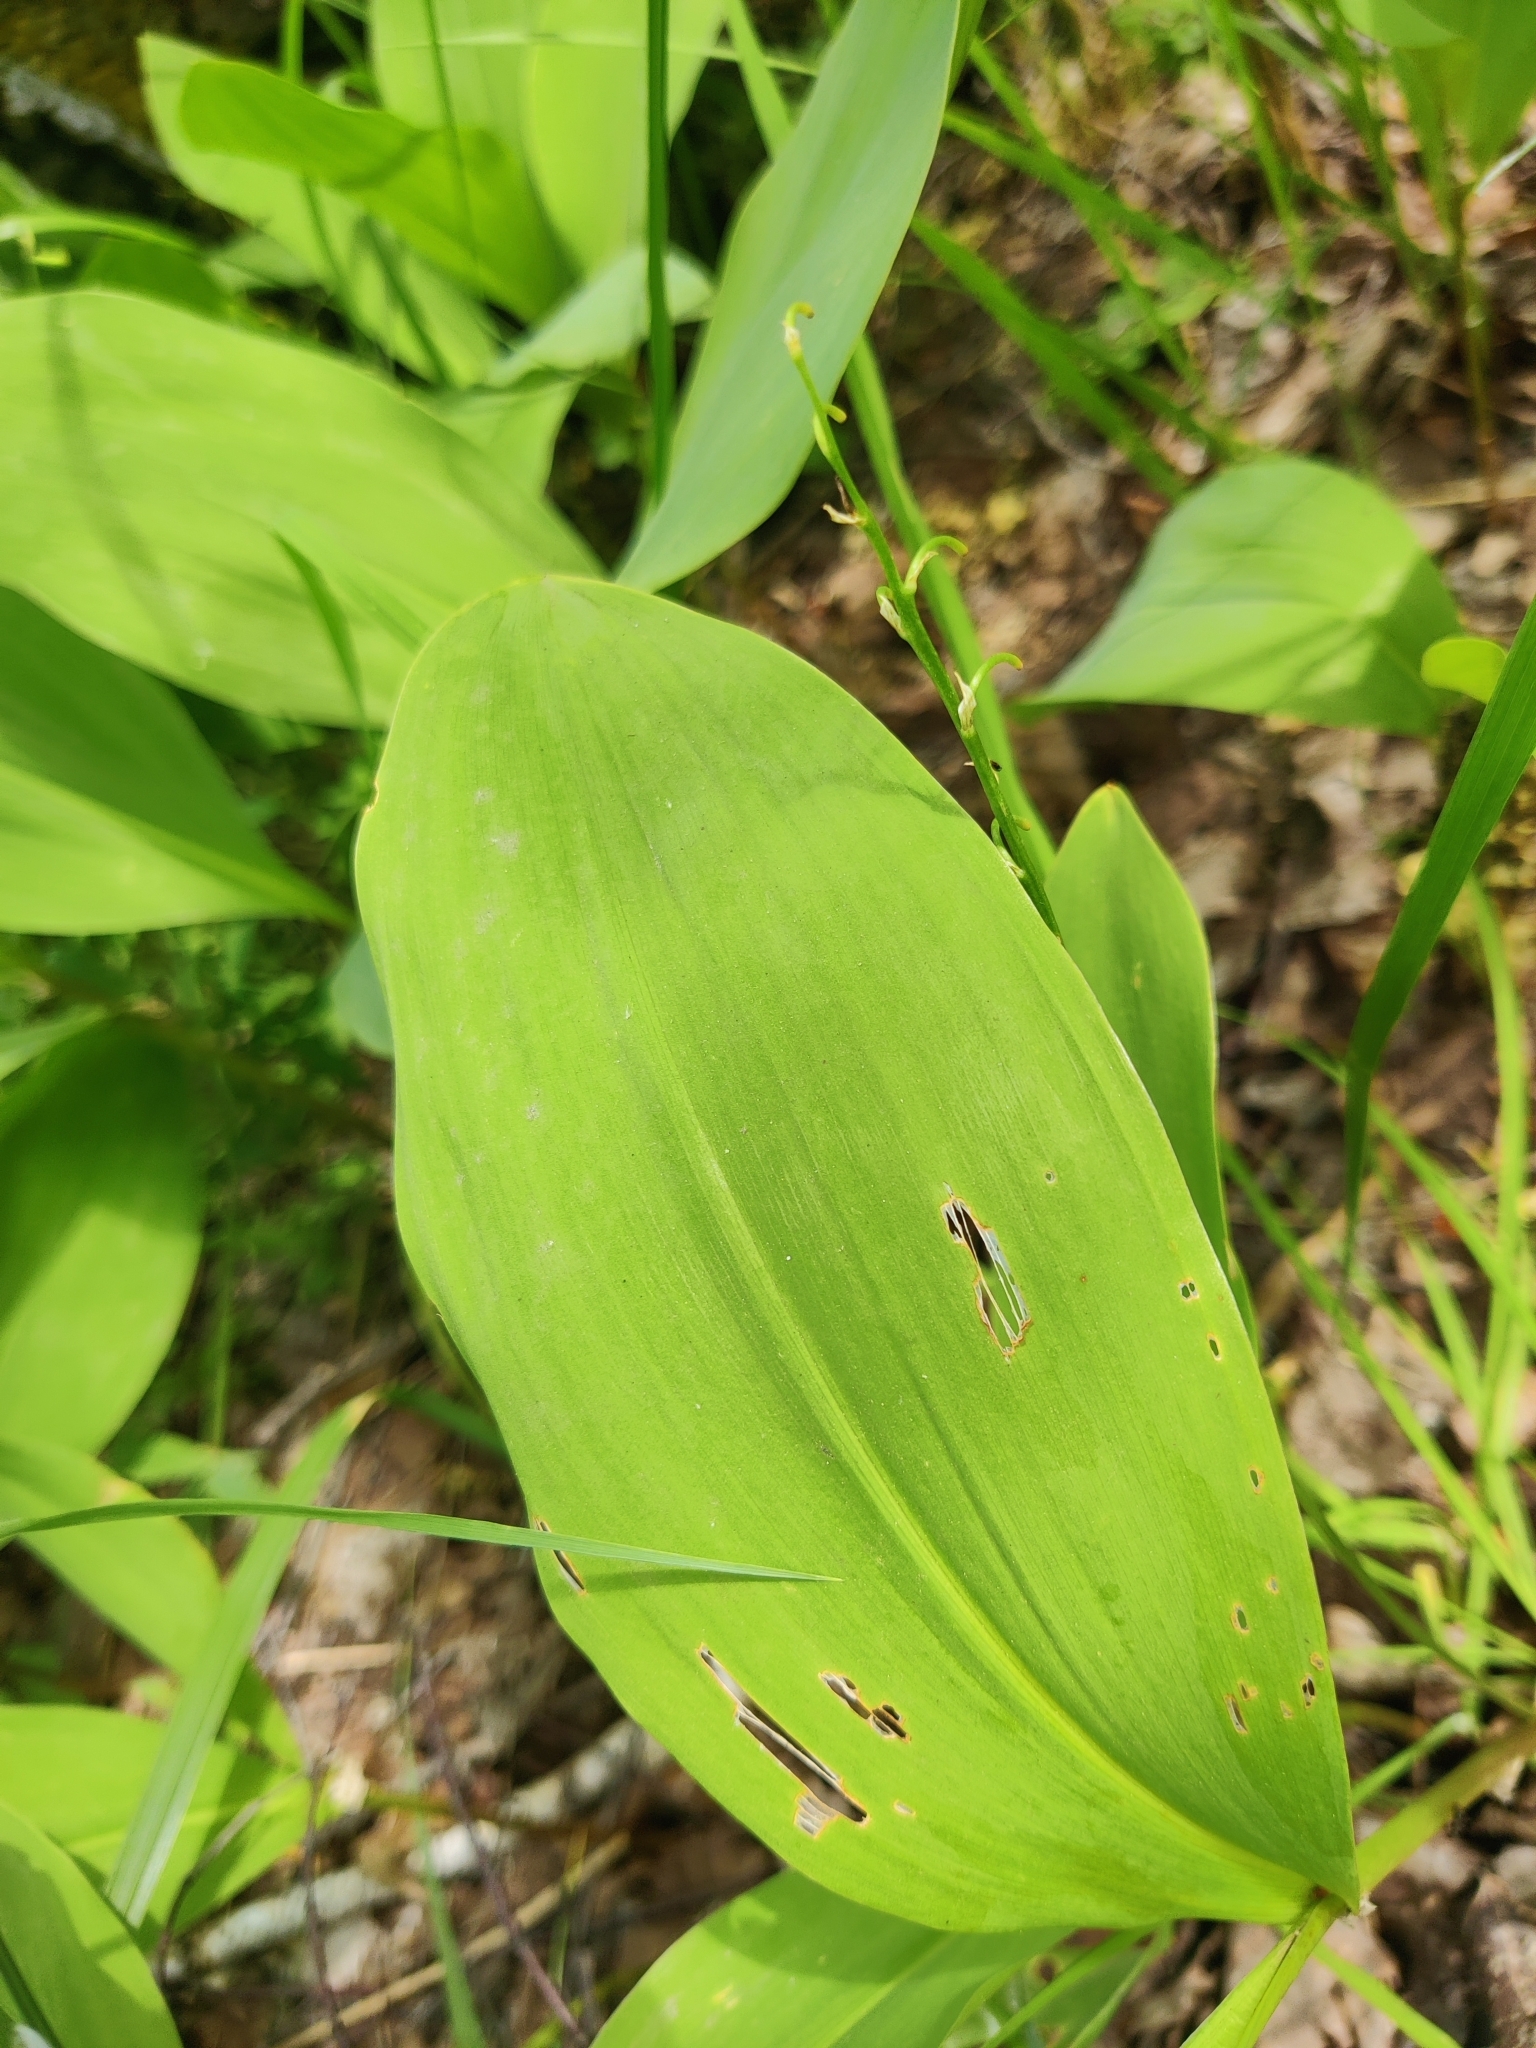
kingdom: Plantae
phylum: Tracheophyta
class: Liliopsida
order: Asparagales
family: Asparagaceae
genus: Convallaria
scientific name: Convallaria majalis
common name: Lily-of-the-valley
